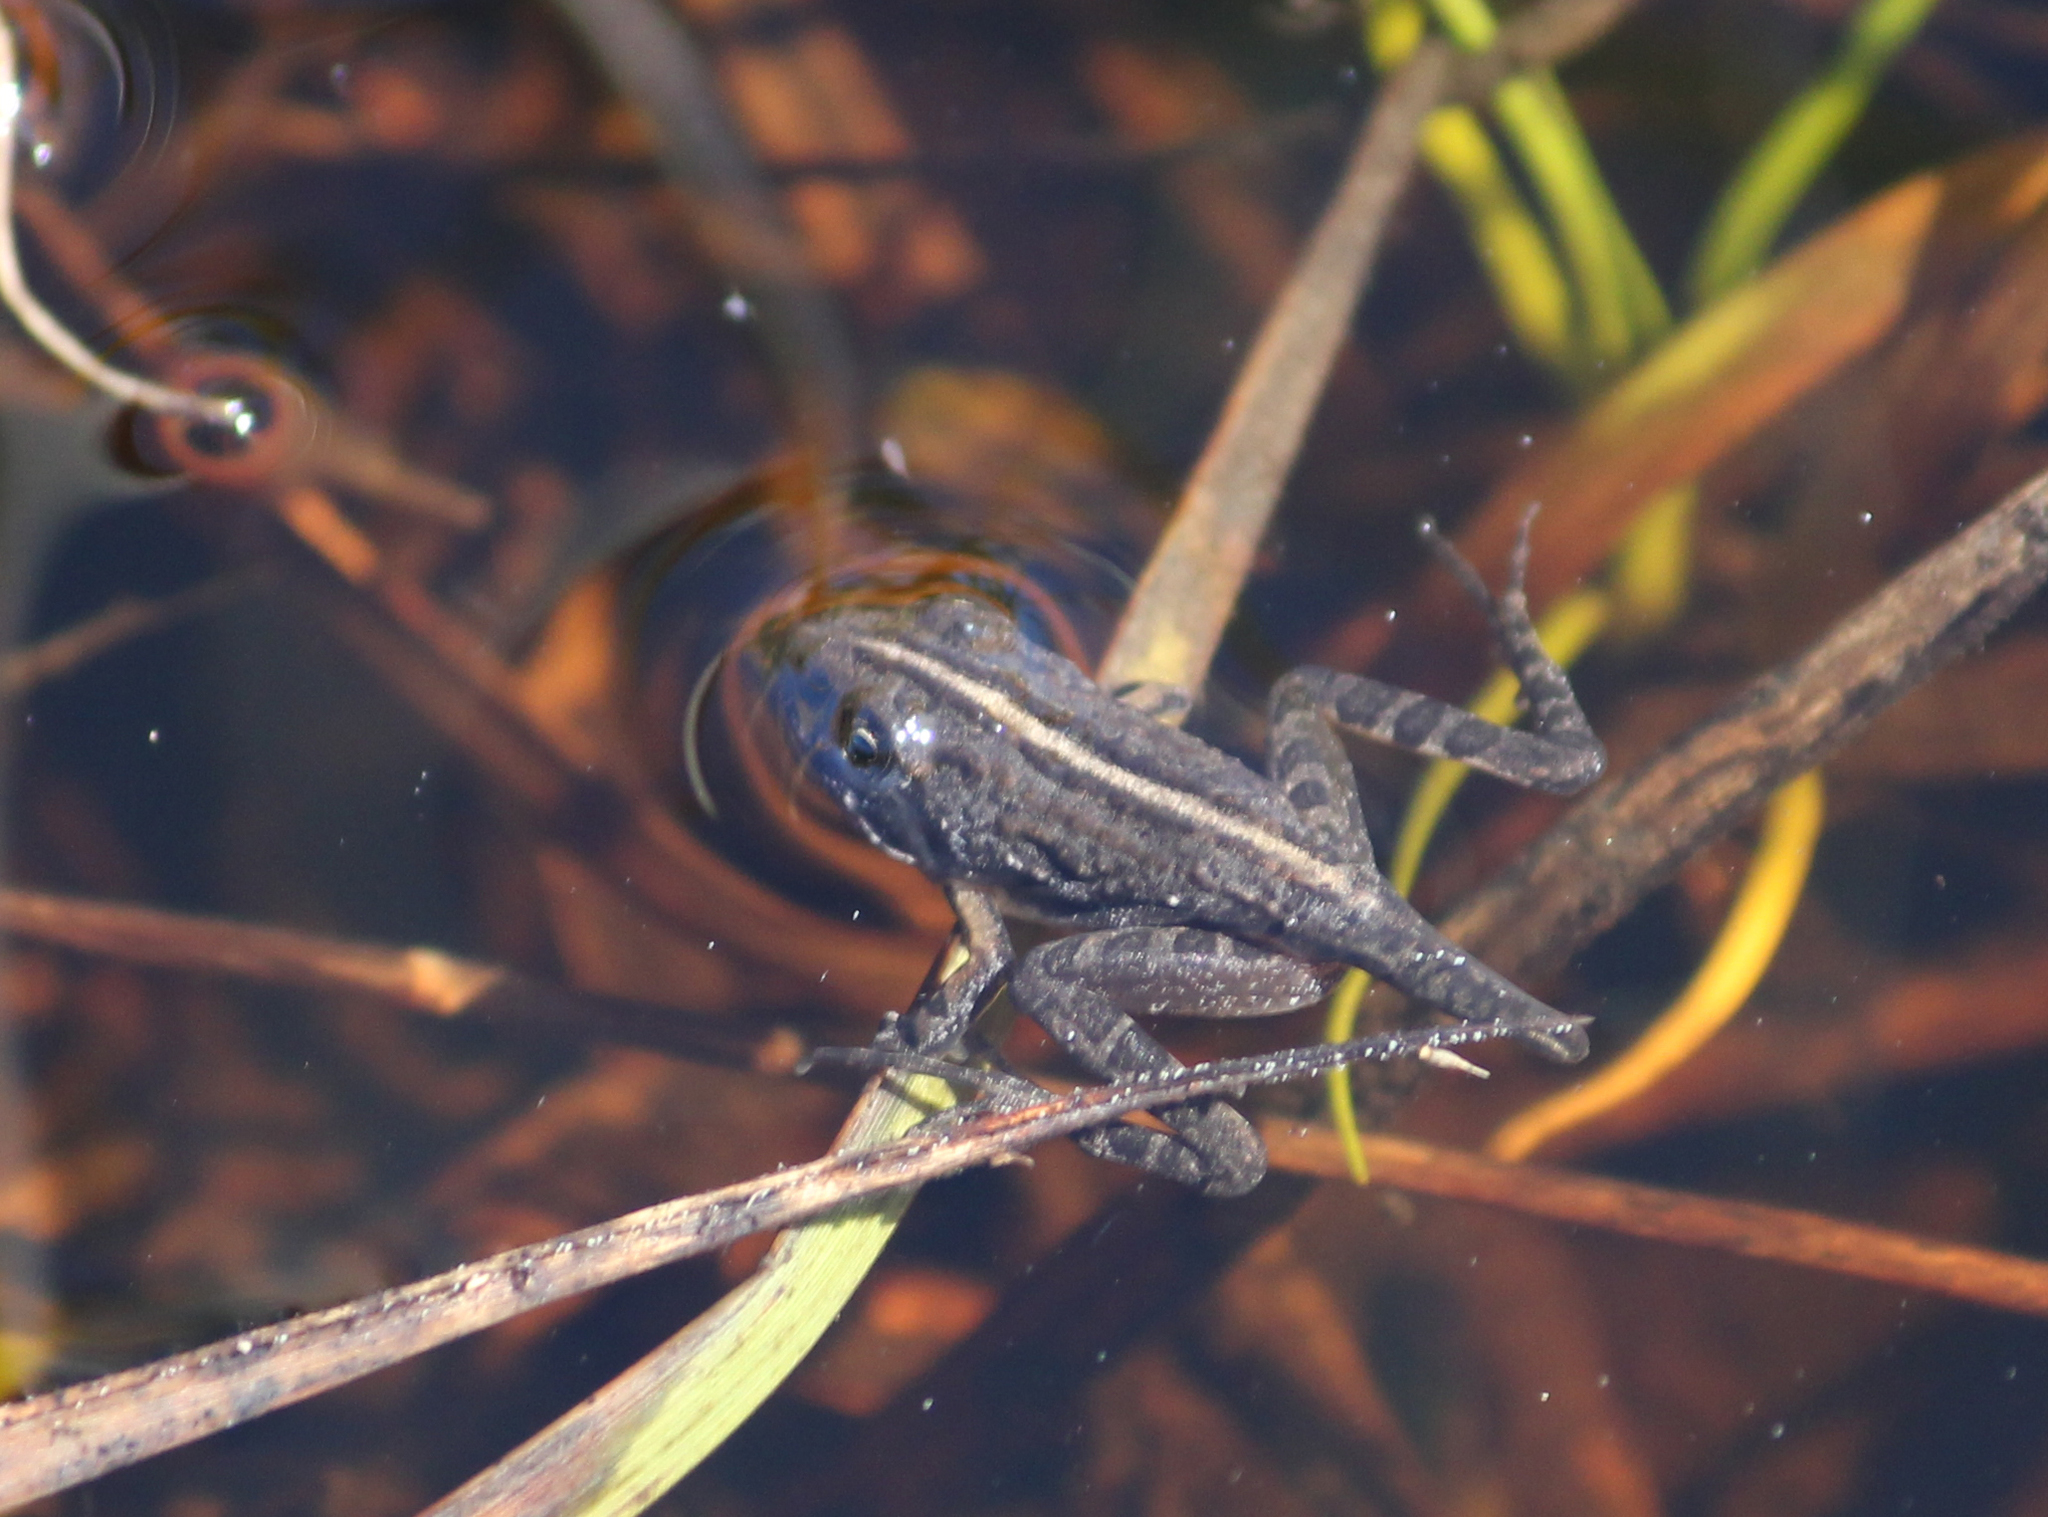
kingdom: Animalia
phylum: Chordata
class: Amphibia
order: Anura
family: Pyxicephalidae
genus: Strongylopus
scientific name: Strongylopus grayii
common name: Gray's stream frog
